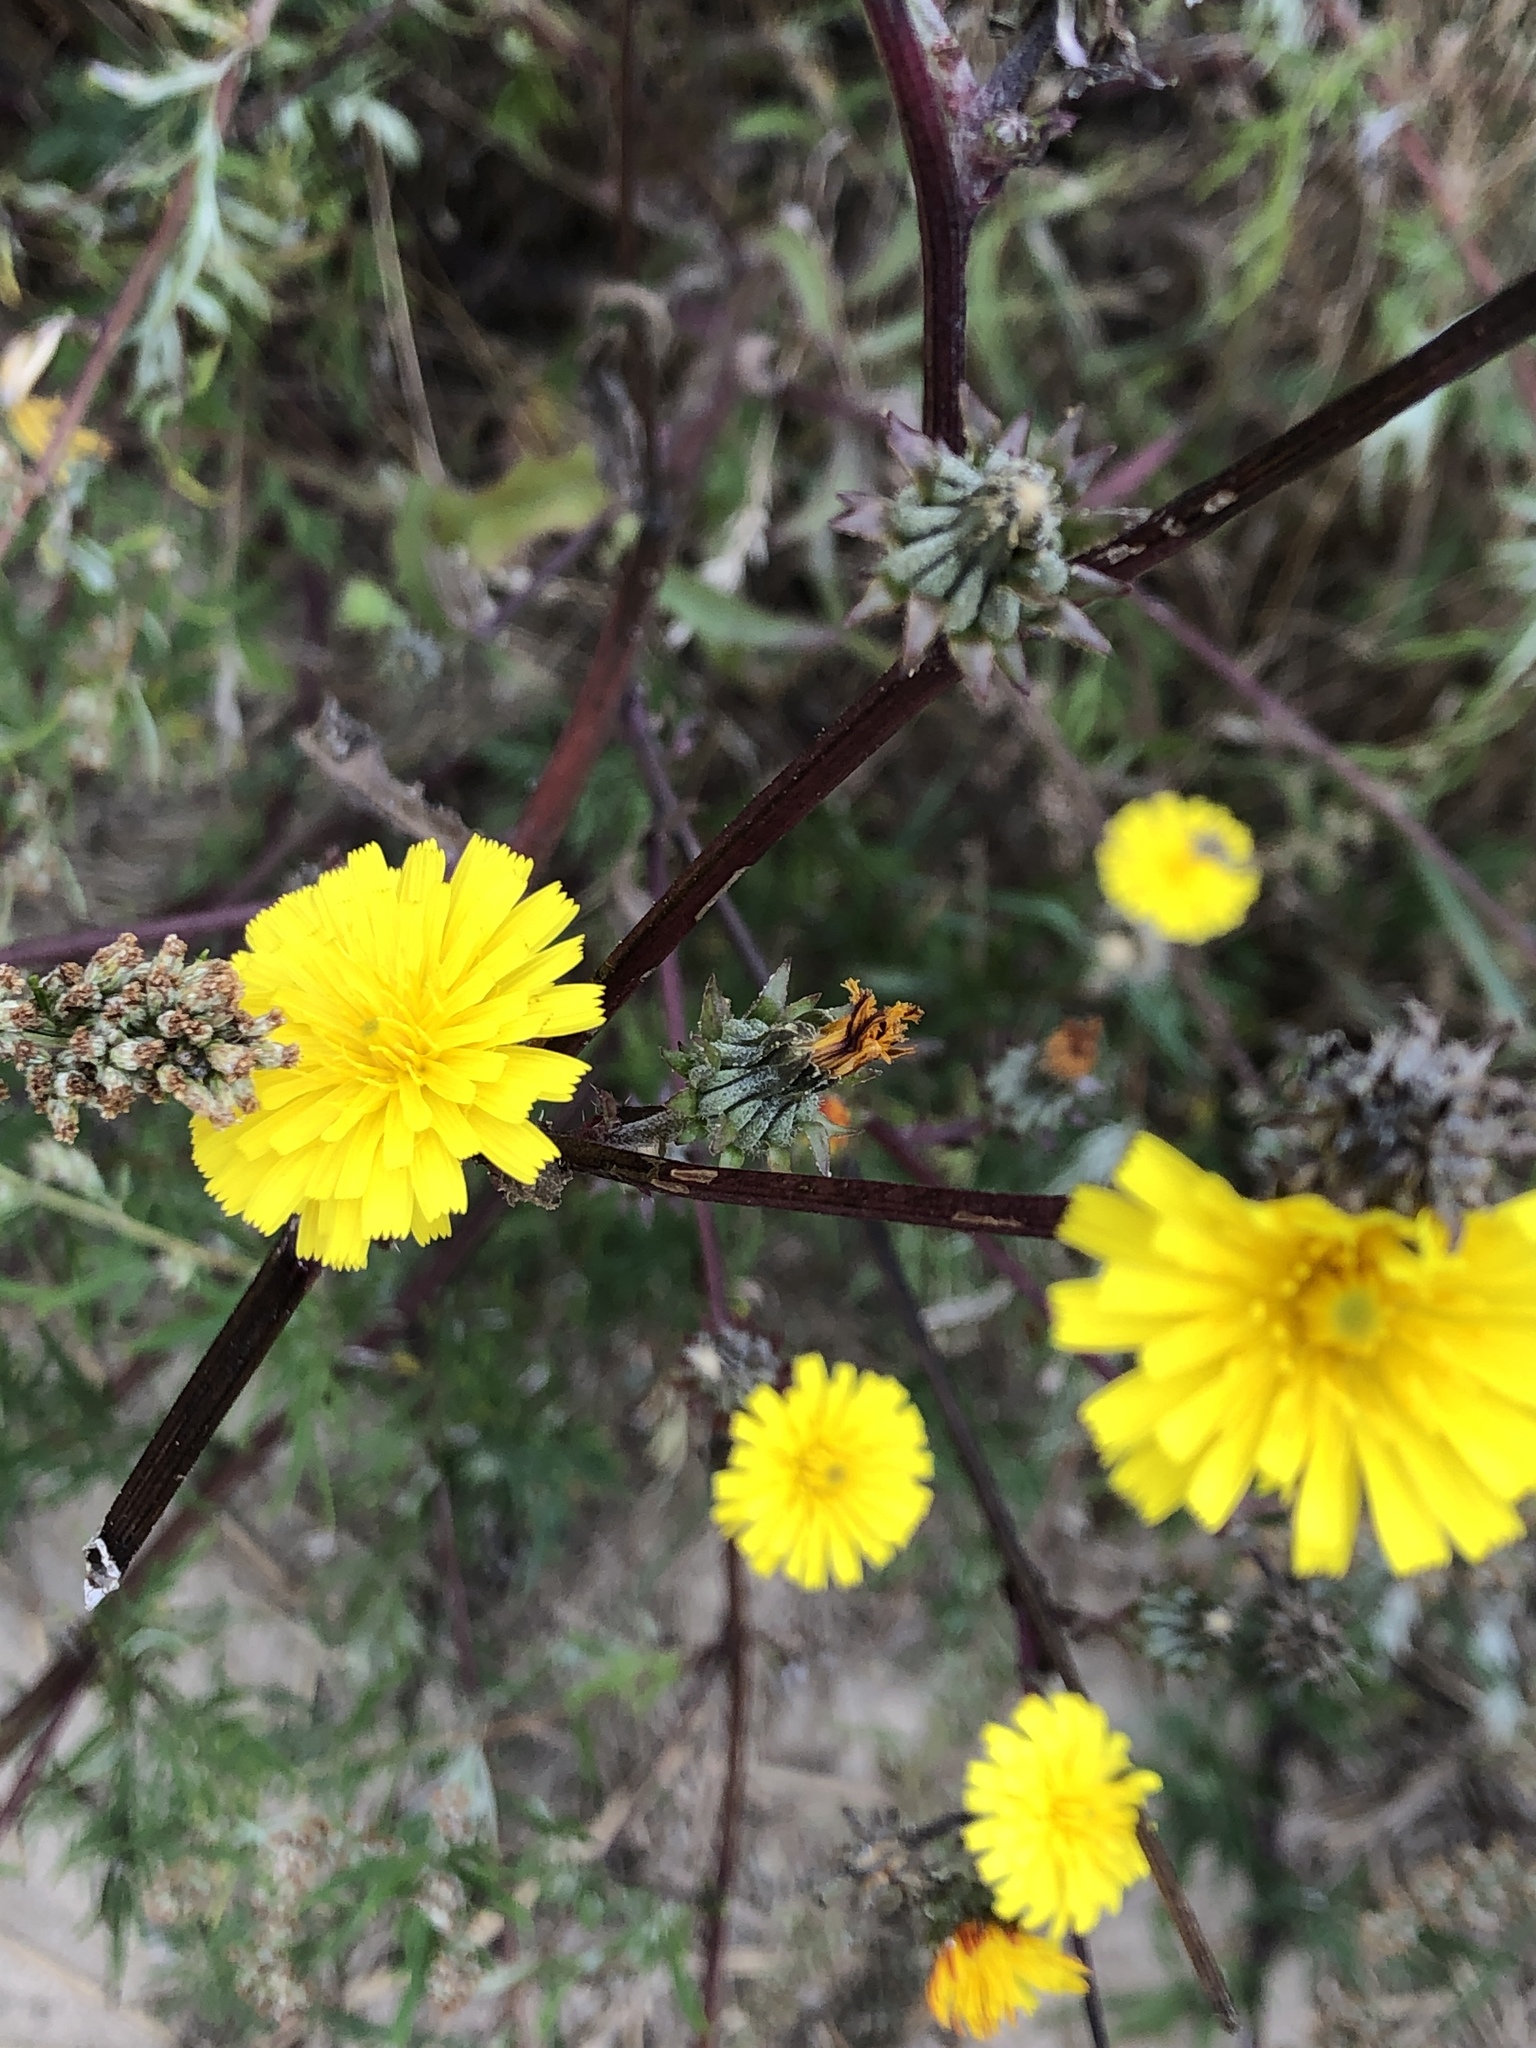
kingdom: Plantae
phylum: Tracheophyta
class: Magnoliopsida
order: Asterales
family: Asteraceae
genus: Picris
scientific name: Picris hieracioides
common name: Hawkweed oxtongue
